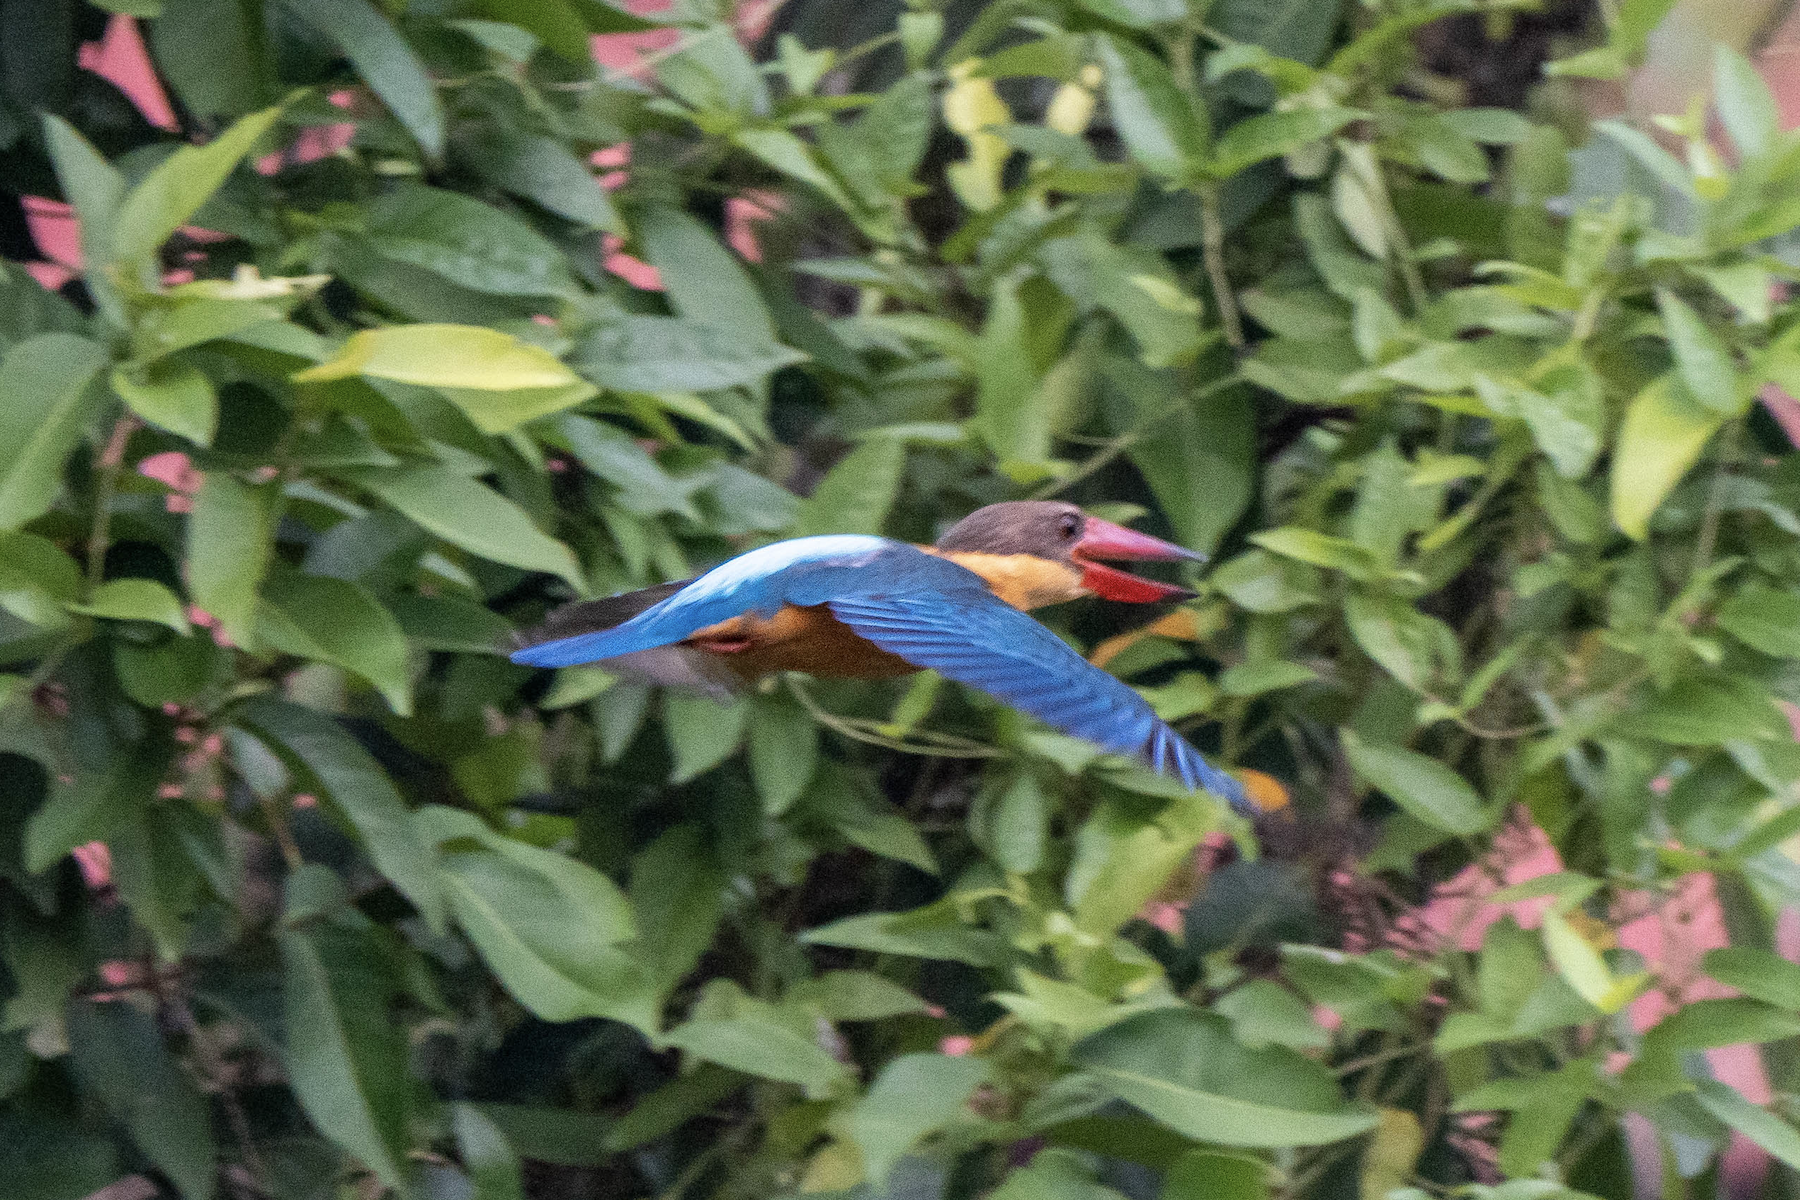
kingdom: Animalia
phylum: Chordata
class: Aves
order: Coraciiformes
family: Alcedinidae
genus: Pelargopsis
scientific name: Pelargopsis capensis
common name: Stork-billed kingfisher
